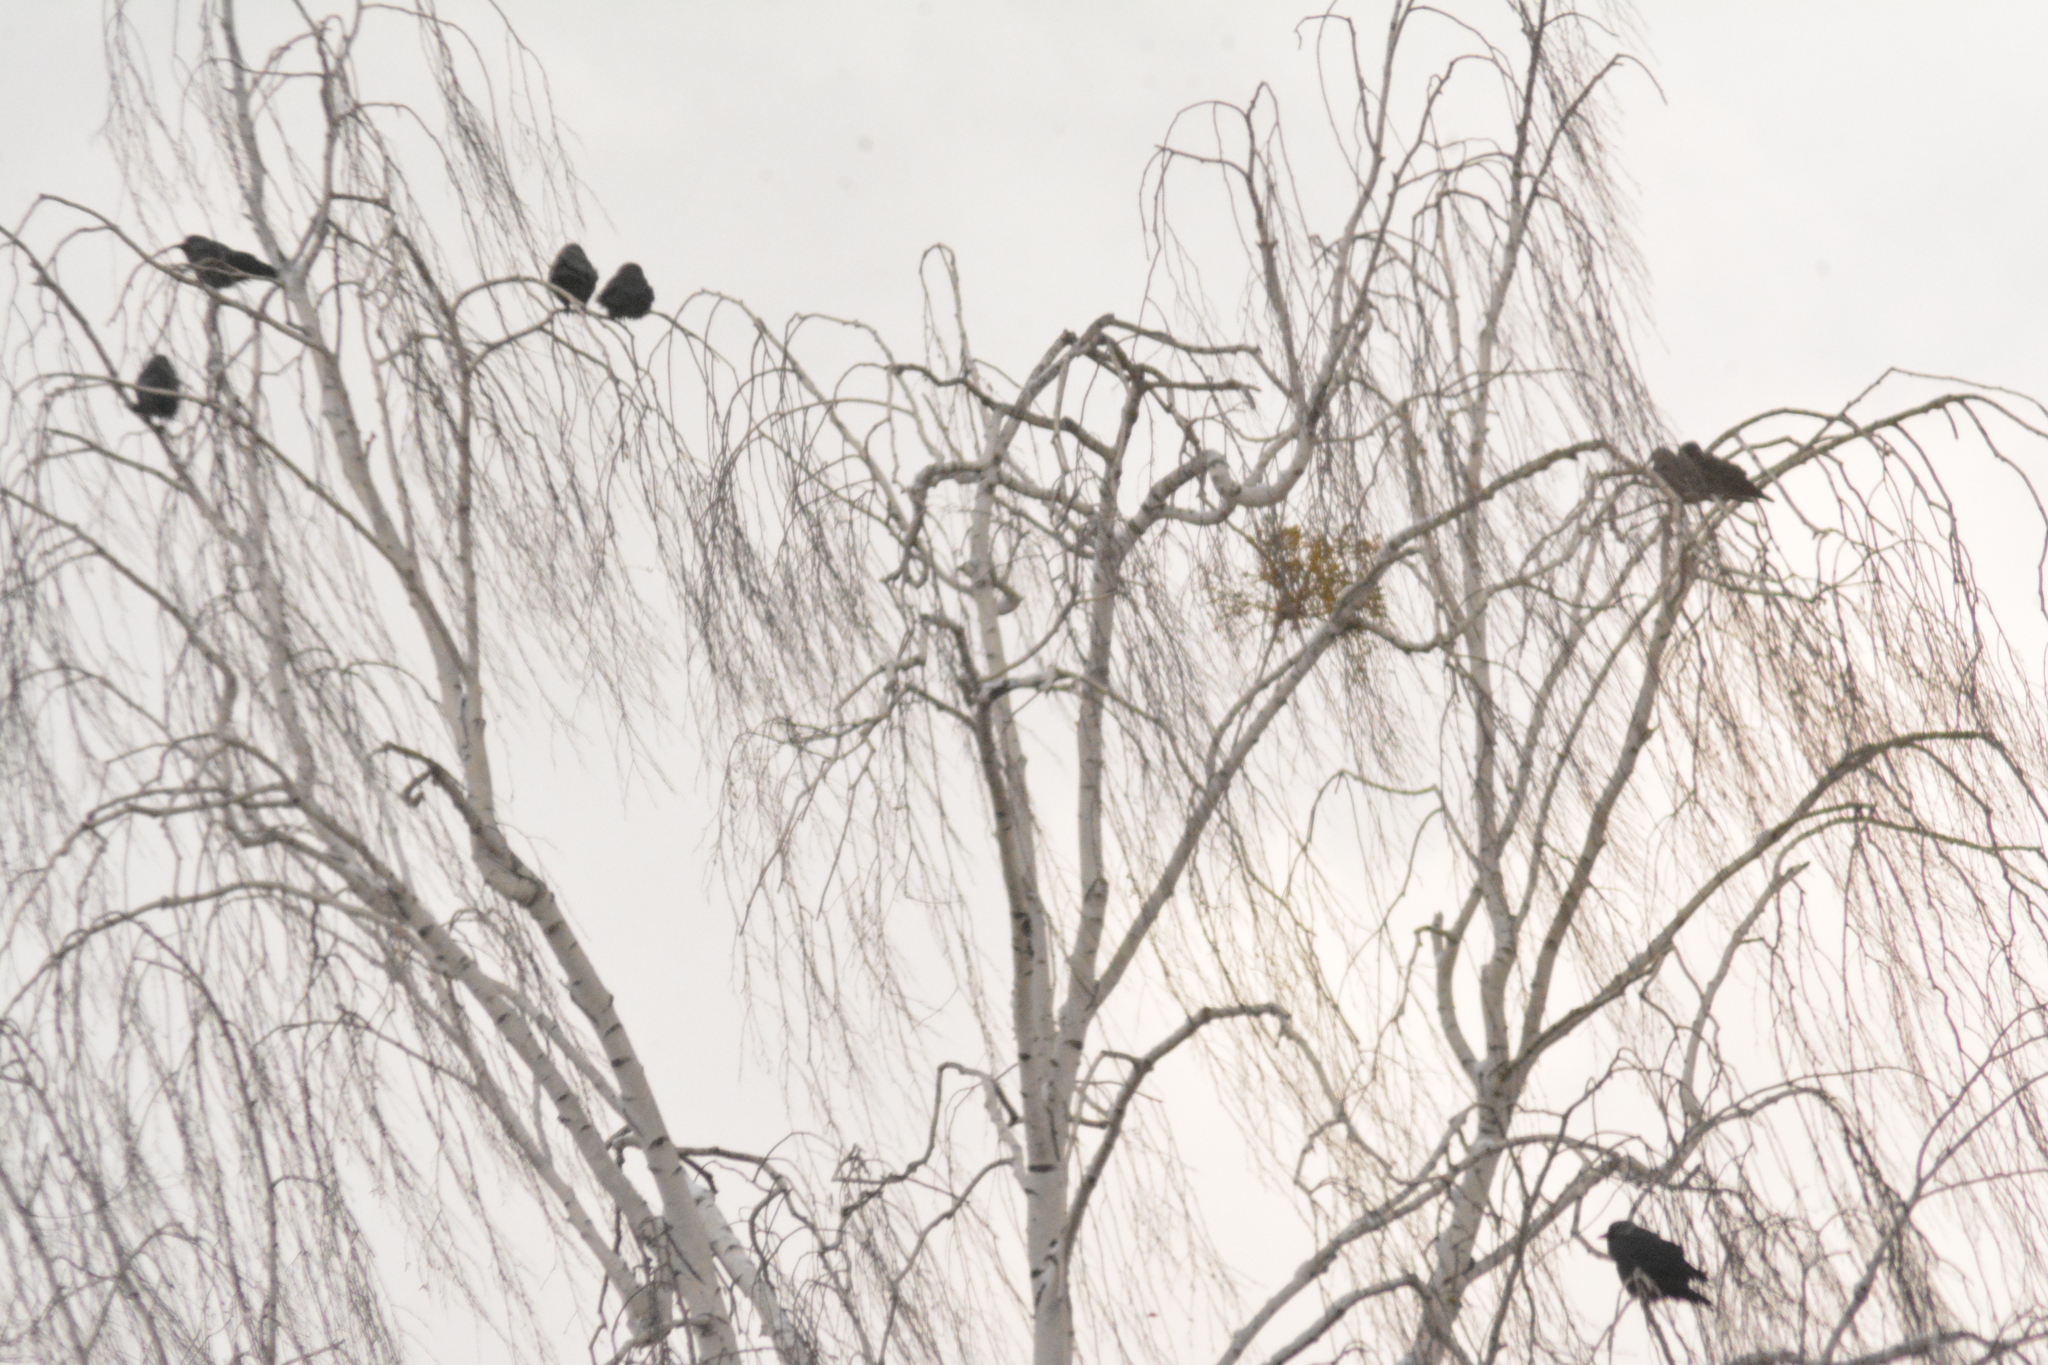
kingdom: Animalia
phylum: Chordata
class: Aves
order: Passeriformes
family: Corvidae
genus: Coloeus
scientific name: Coloeus monedula
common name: Western jackdaw
